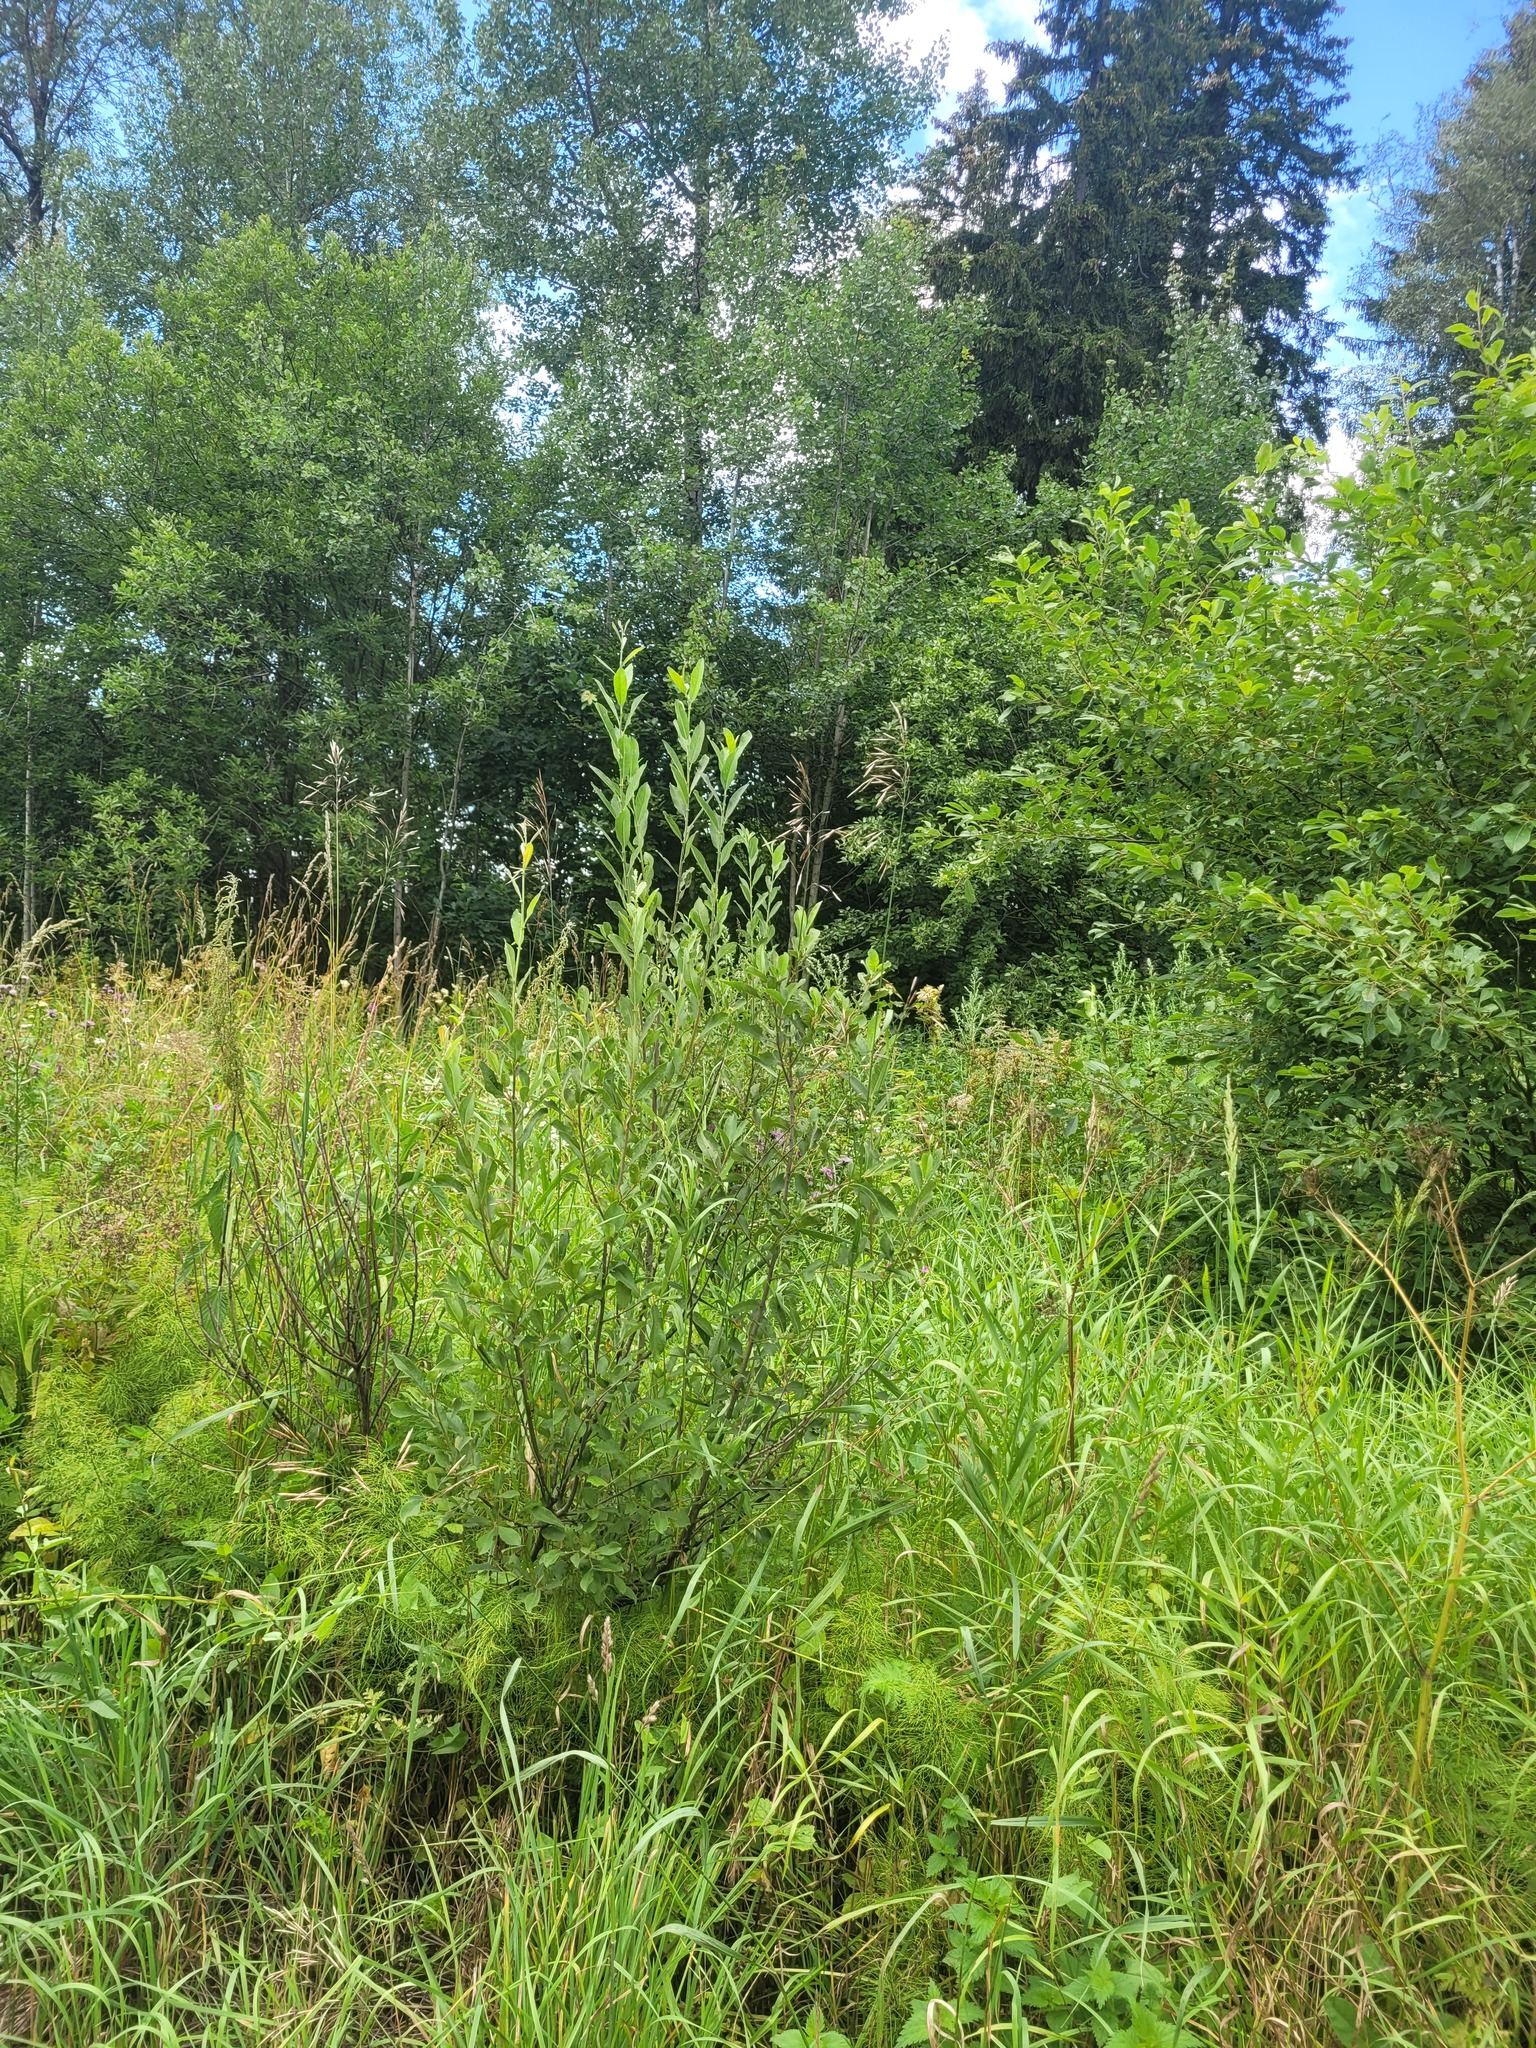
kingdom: Plantae
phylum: Tracheophyta
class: Magnoliopsida
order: Malpighiales
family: Salicaceae
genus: Salix
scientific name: Salix cinerea
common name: Common sallow
